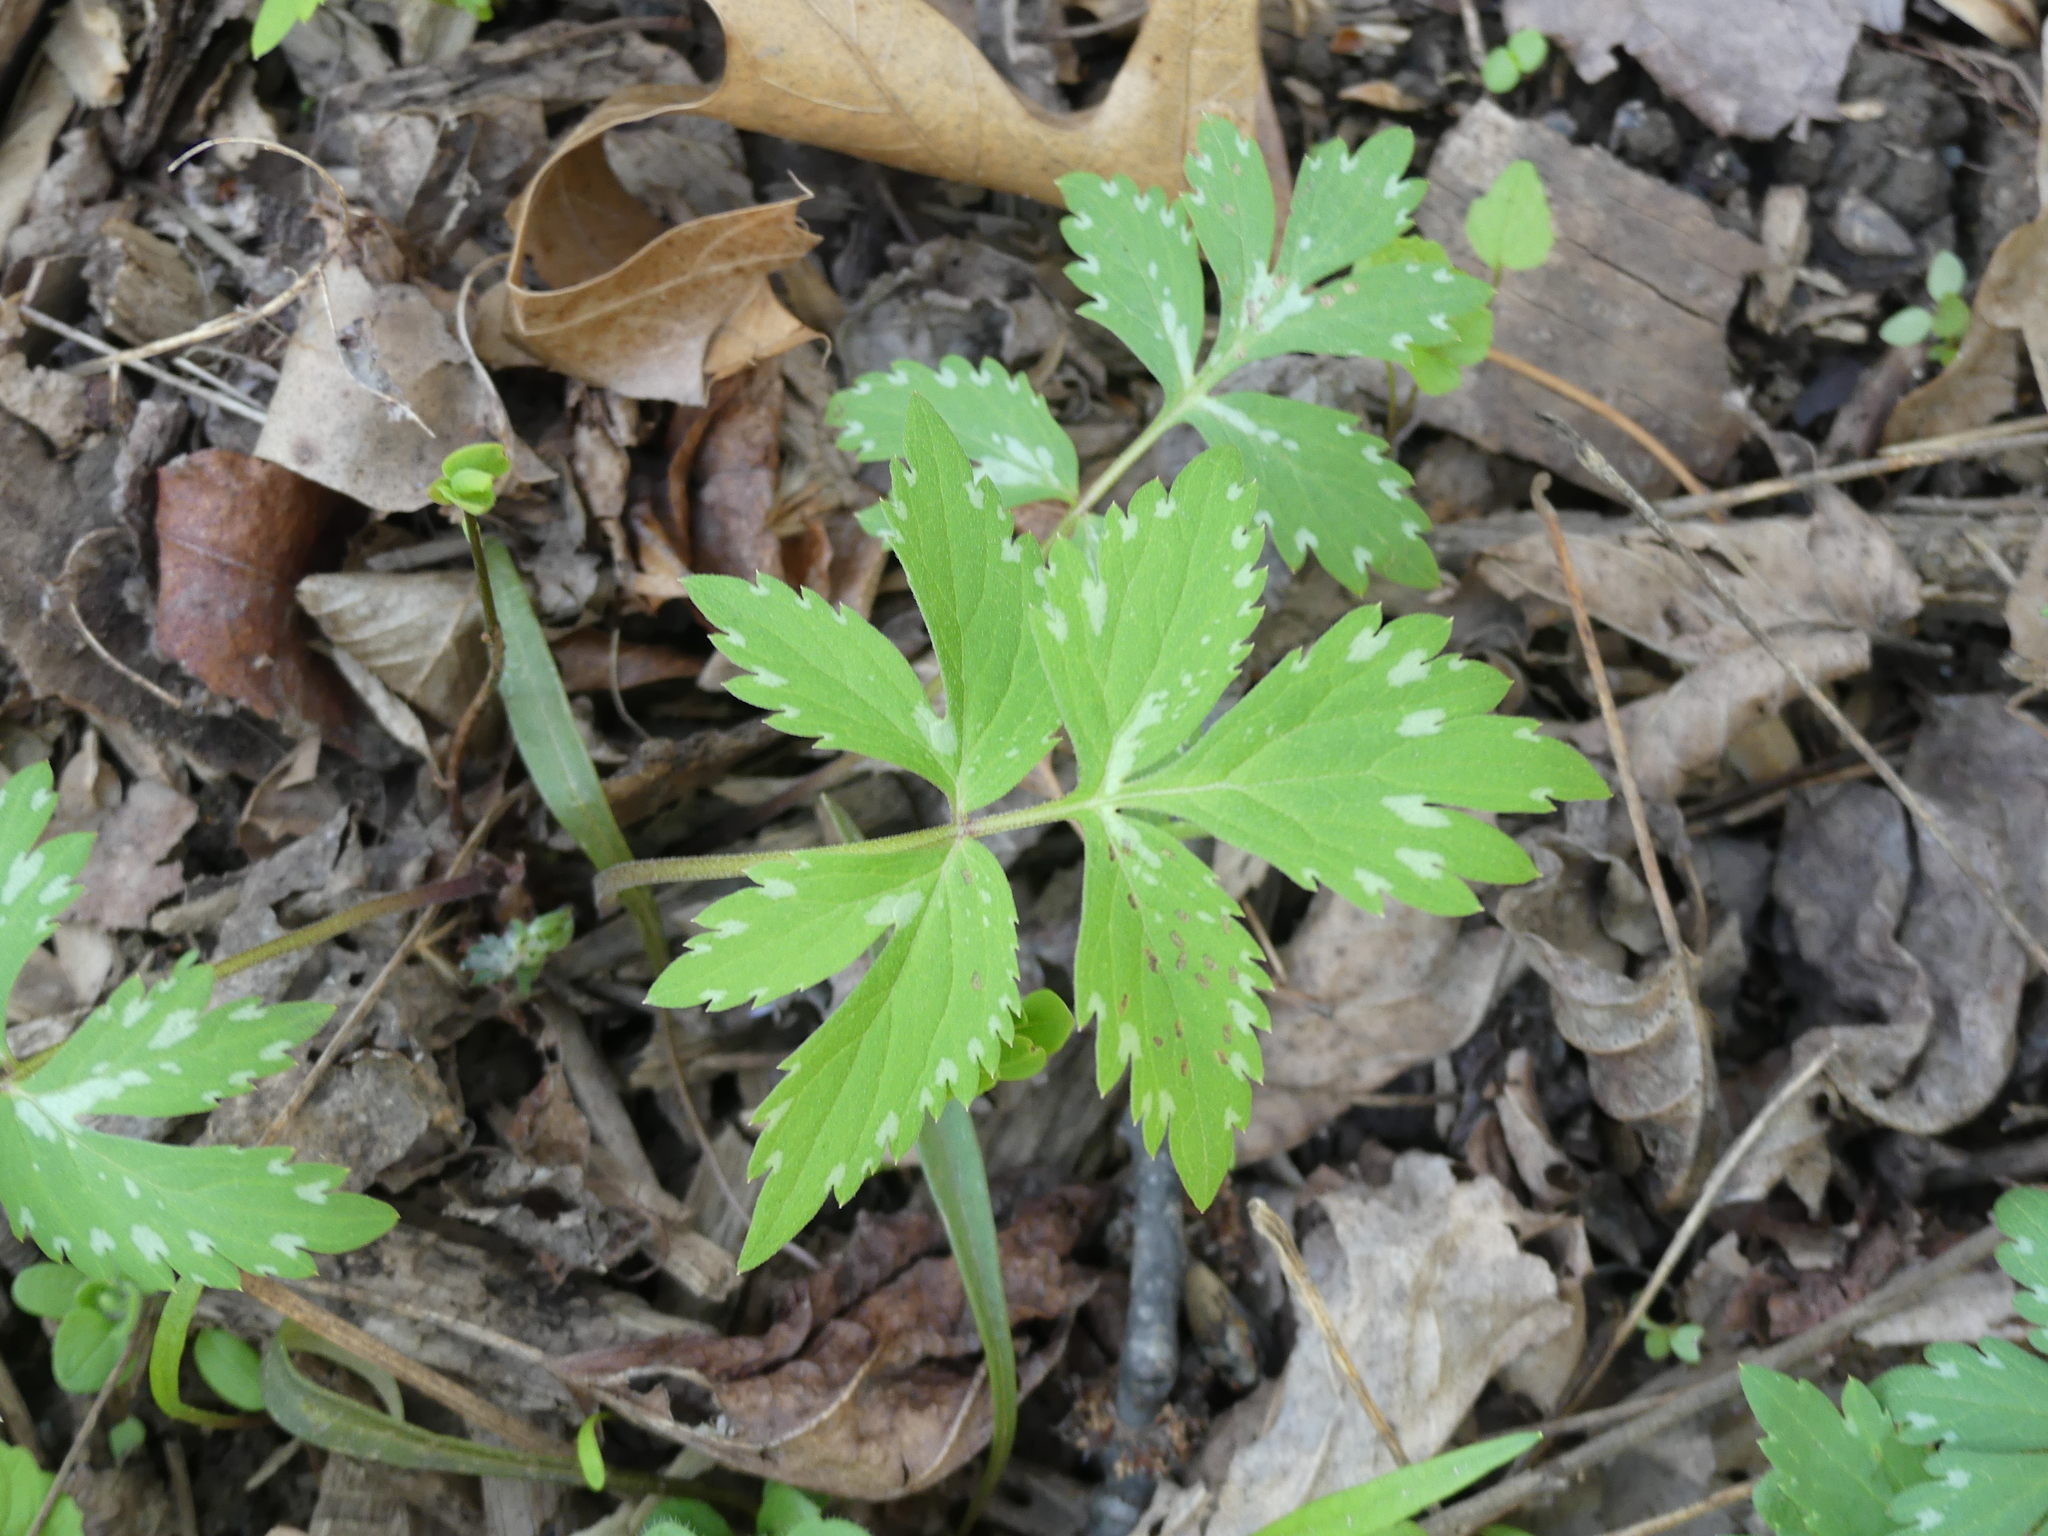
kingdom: Plantae
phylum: Tracheophyta
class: Magnoliopsida
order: Boraginales
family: Hydrophyllaceae
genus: Hydrophyllum
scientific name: Hydrophyllum virginianum
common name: Virginia waterleaf
